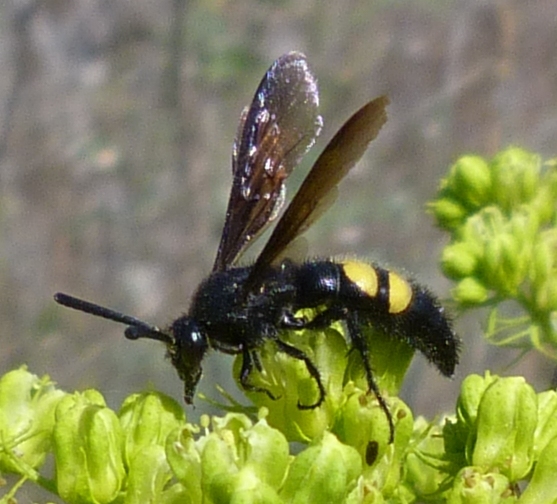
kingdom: Animalia
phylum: Arthropoda
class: Insecta
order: Hymenoptera
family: Scoliidae
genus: Scolia
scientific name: Scolia hirta
